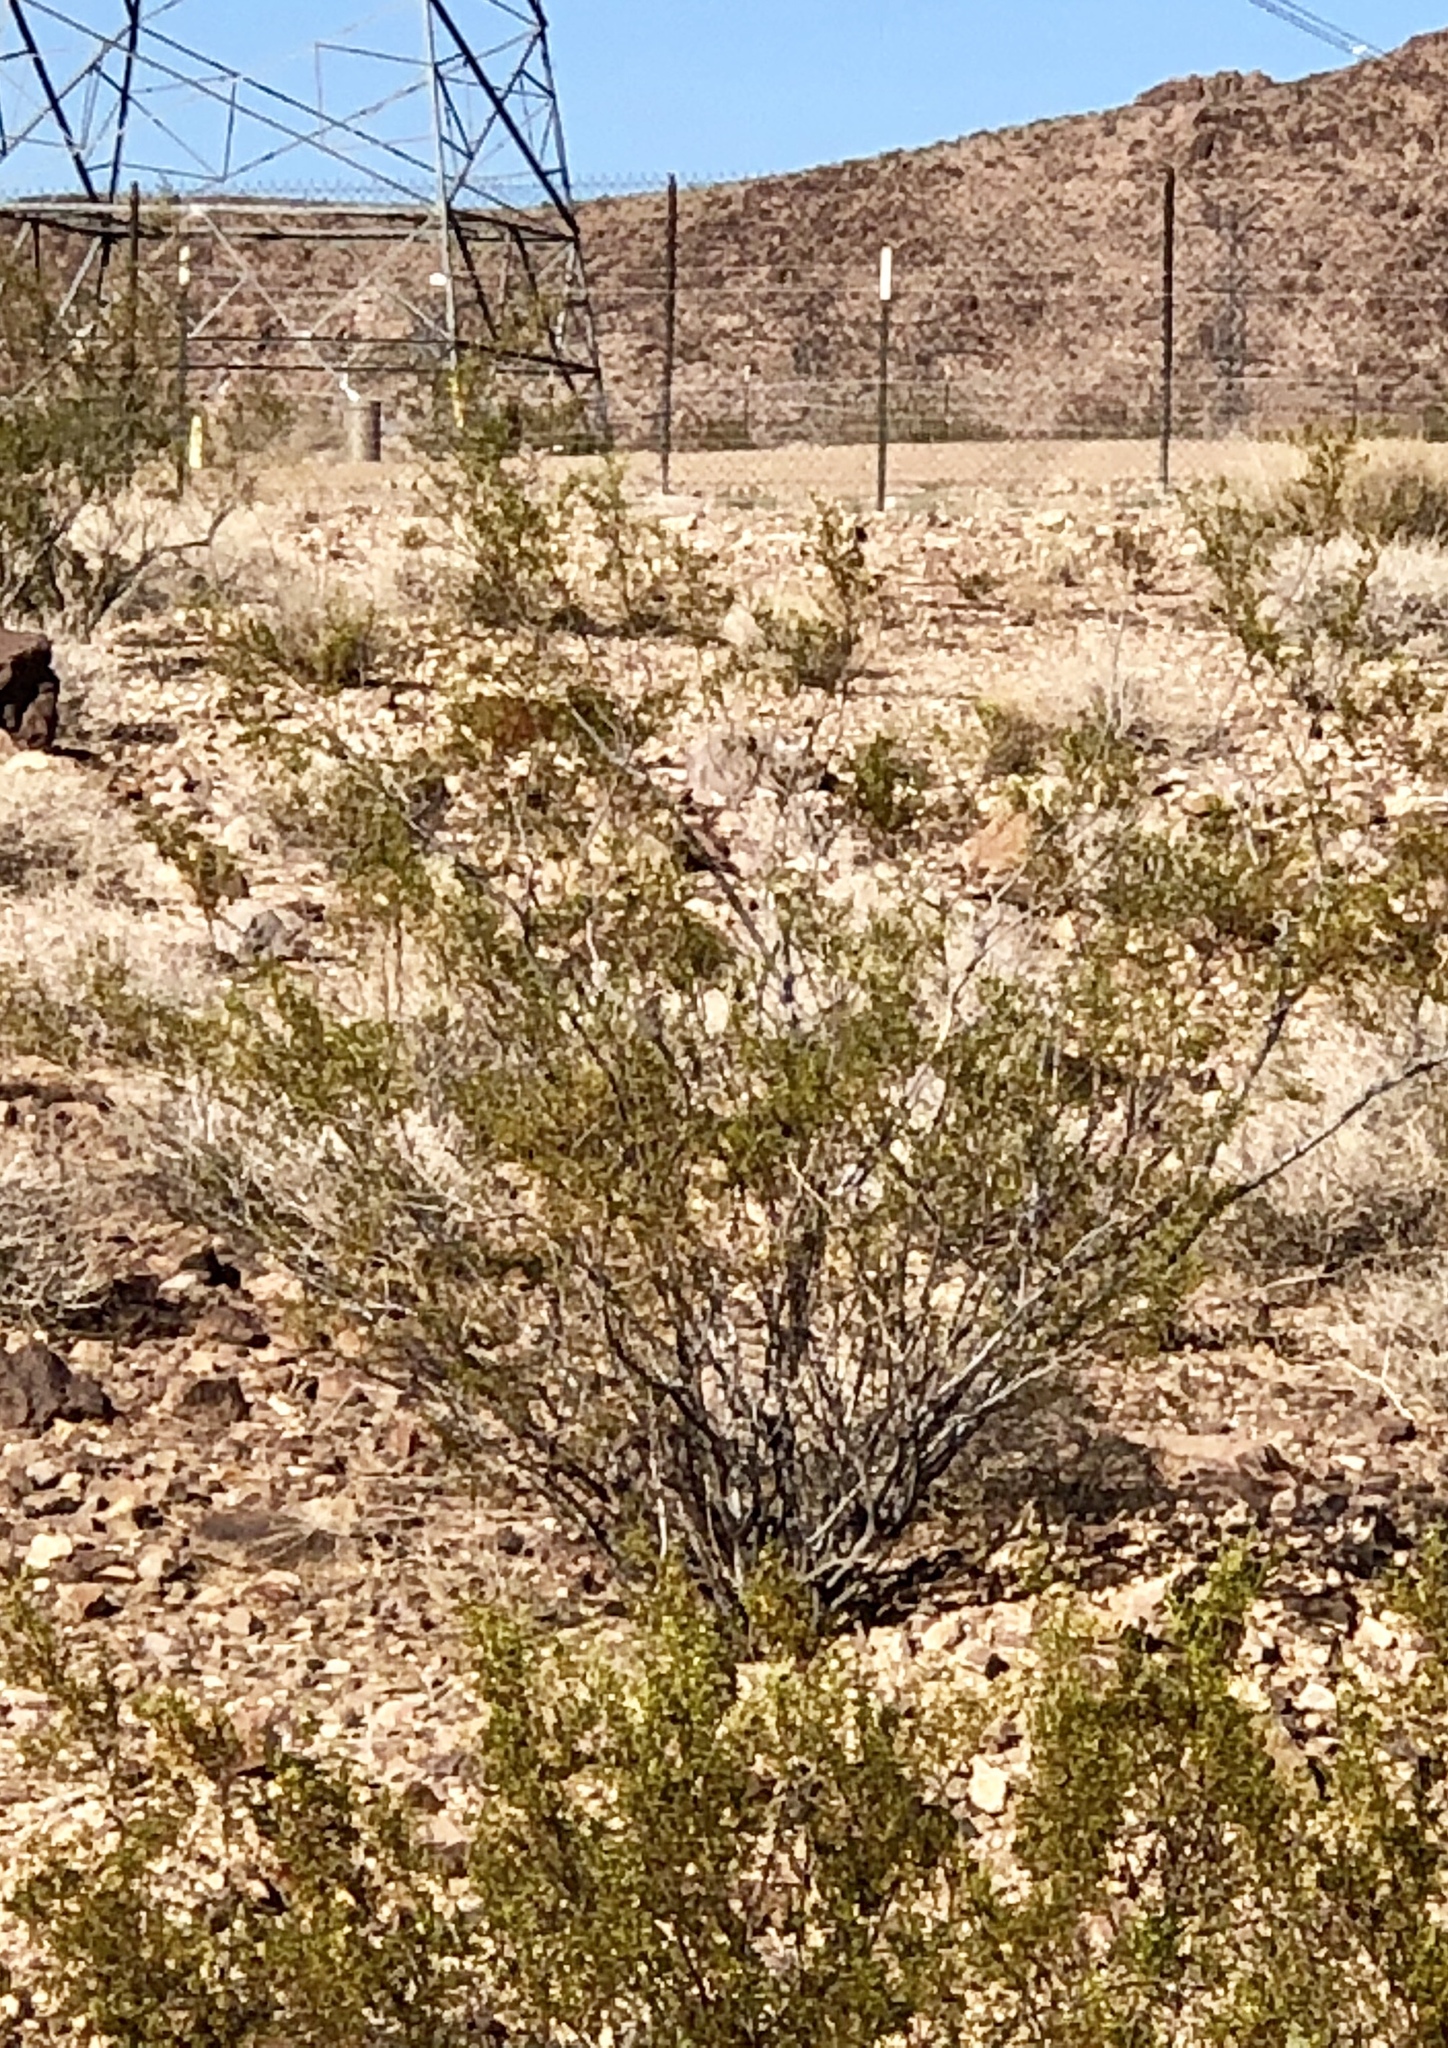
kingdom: Plantae
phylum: Tracheophyta
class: Magnoliopsida
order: Zygophyllales
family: Zygophyllaceae
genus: Larrea
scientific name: Larrea tridentata
